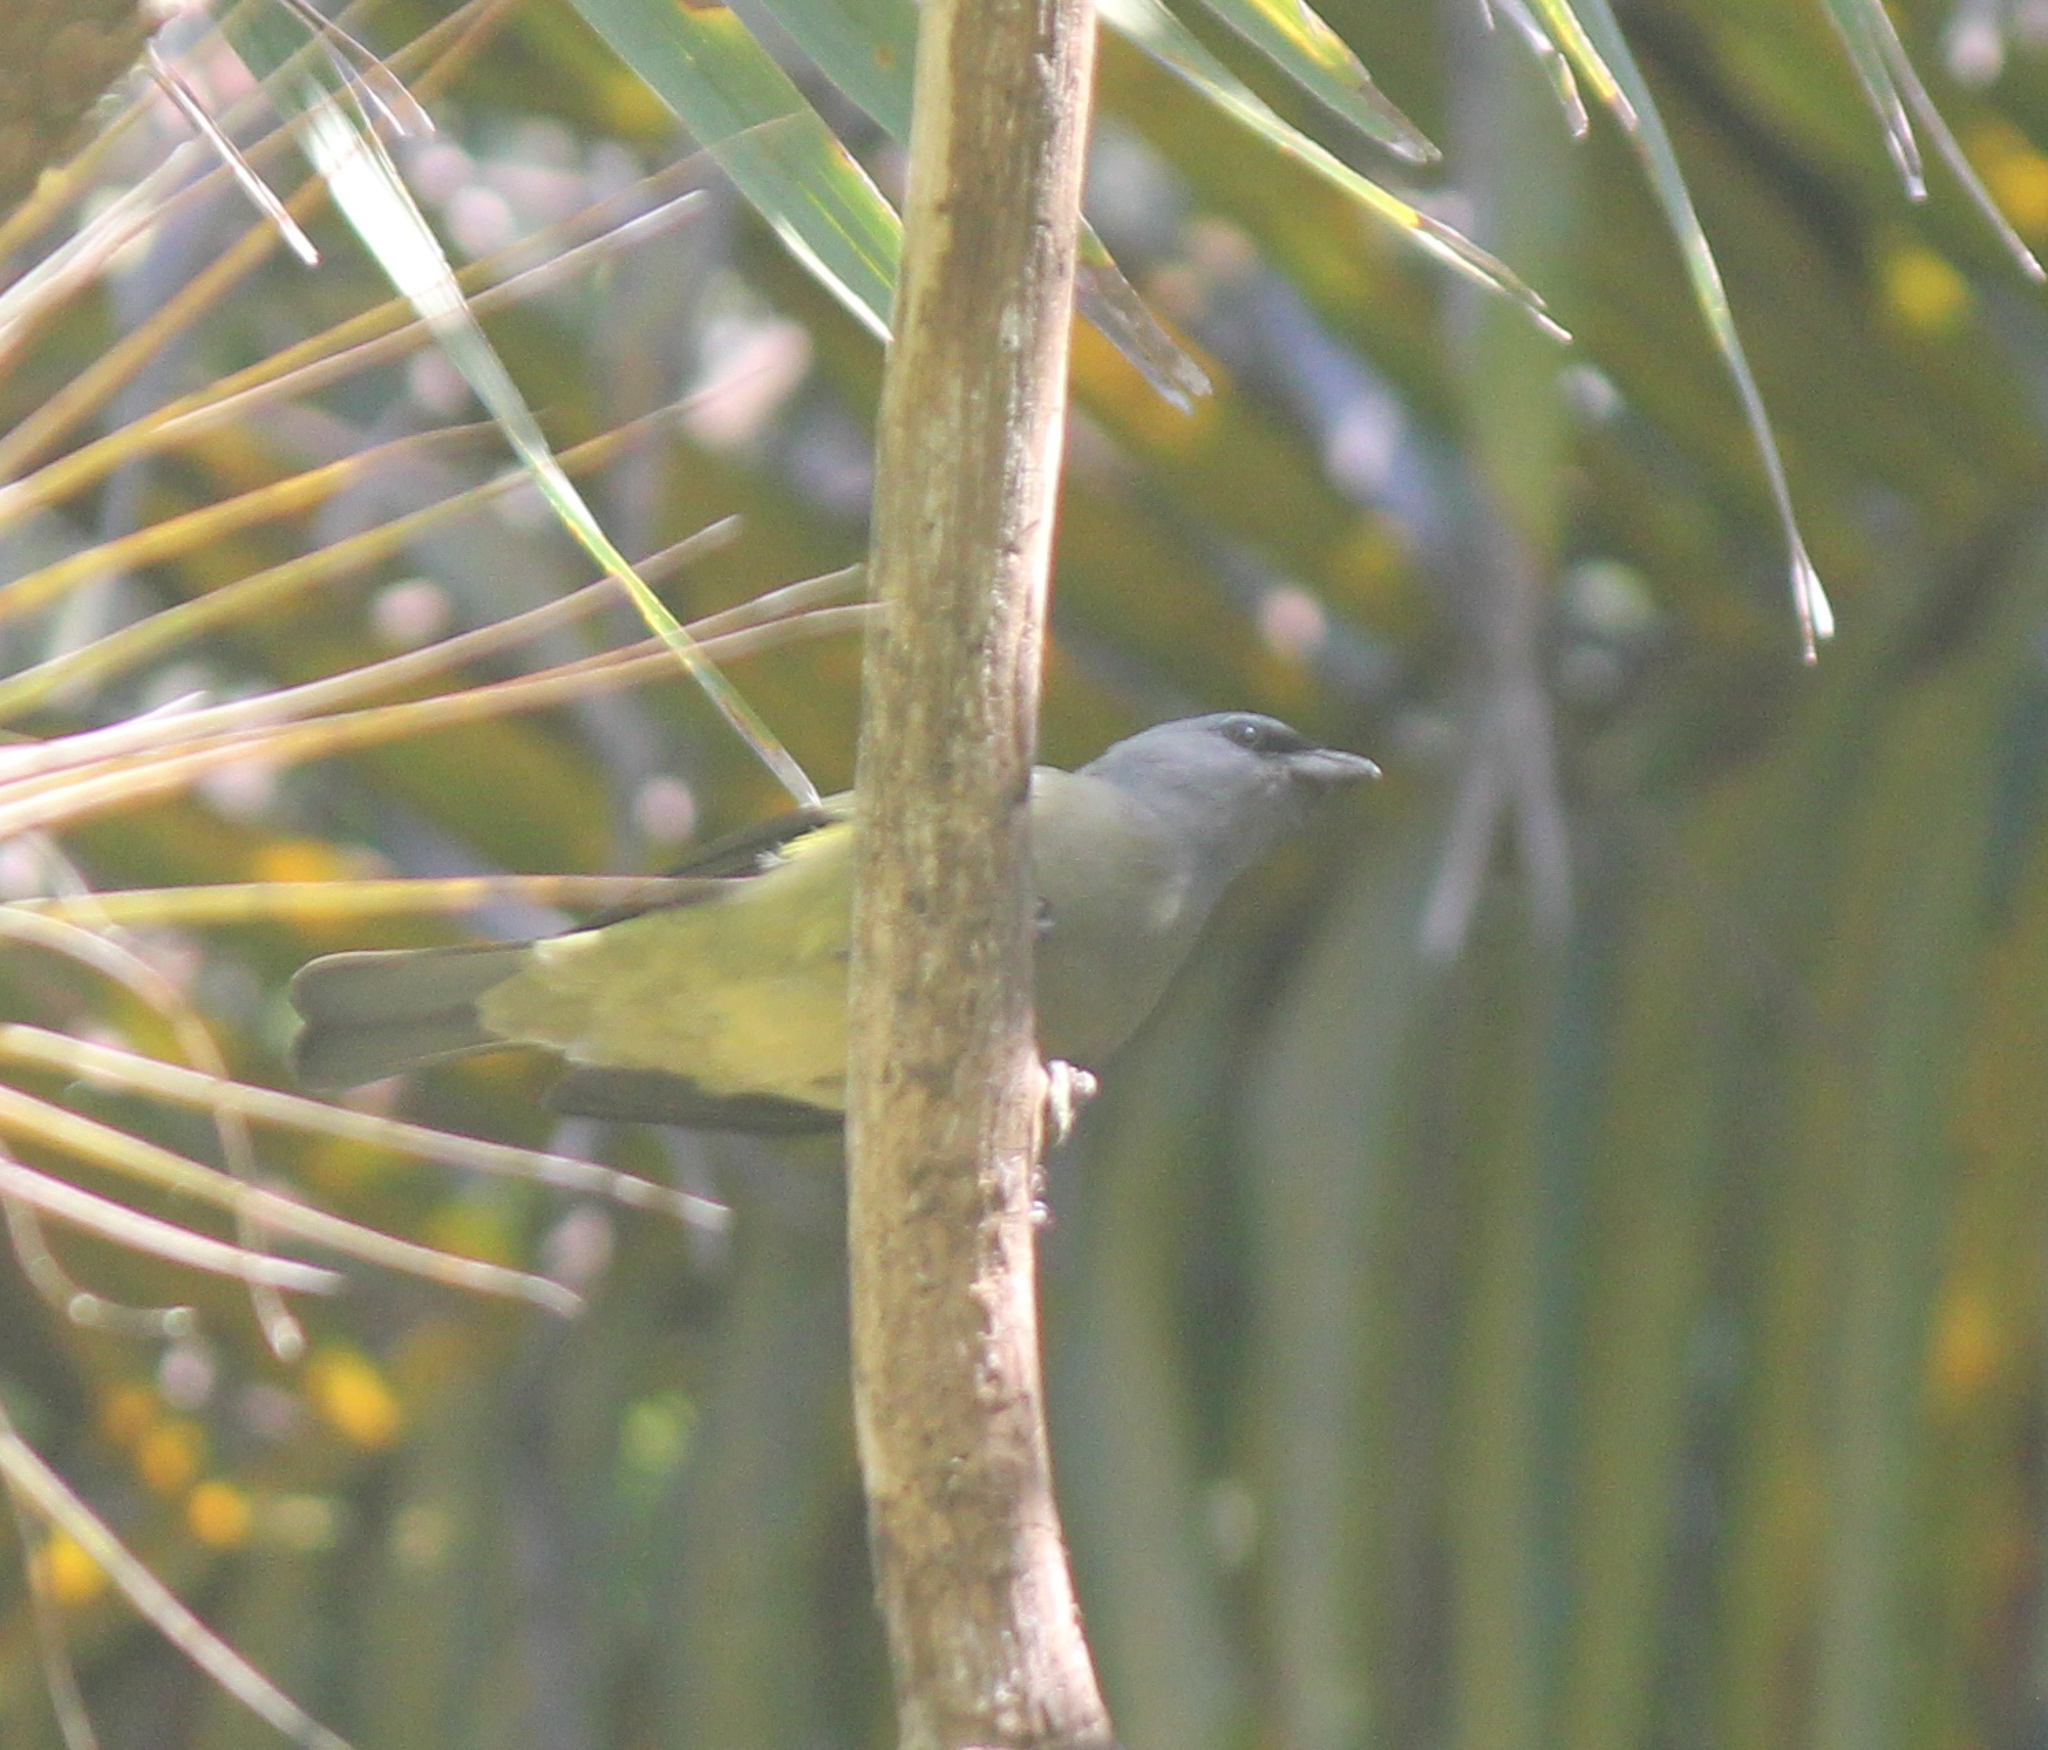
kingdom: Animalia
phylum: Chordata
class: Aves
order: Passeriformes
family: Thraupidae
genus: Thraupis
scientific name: Thraupis abbas
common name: Yellow-winged tanager
